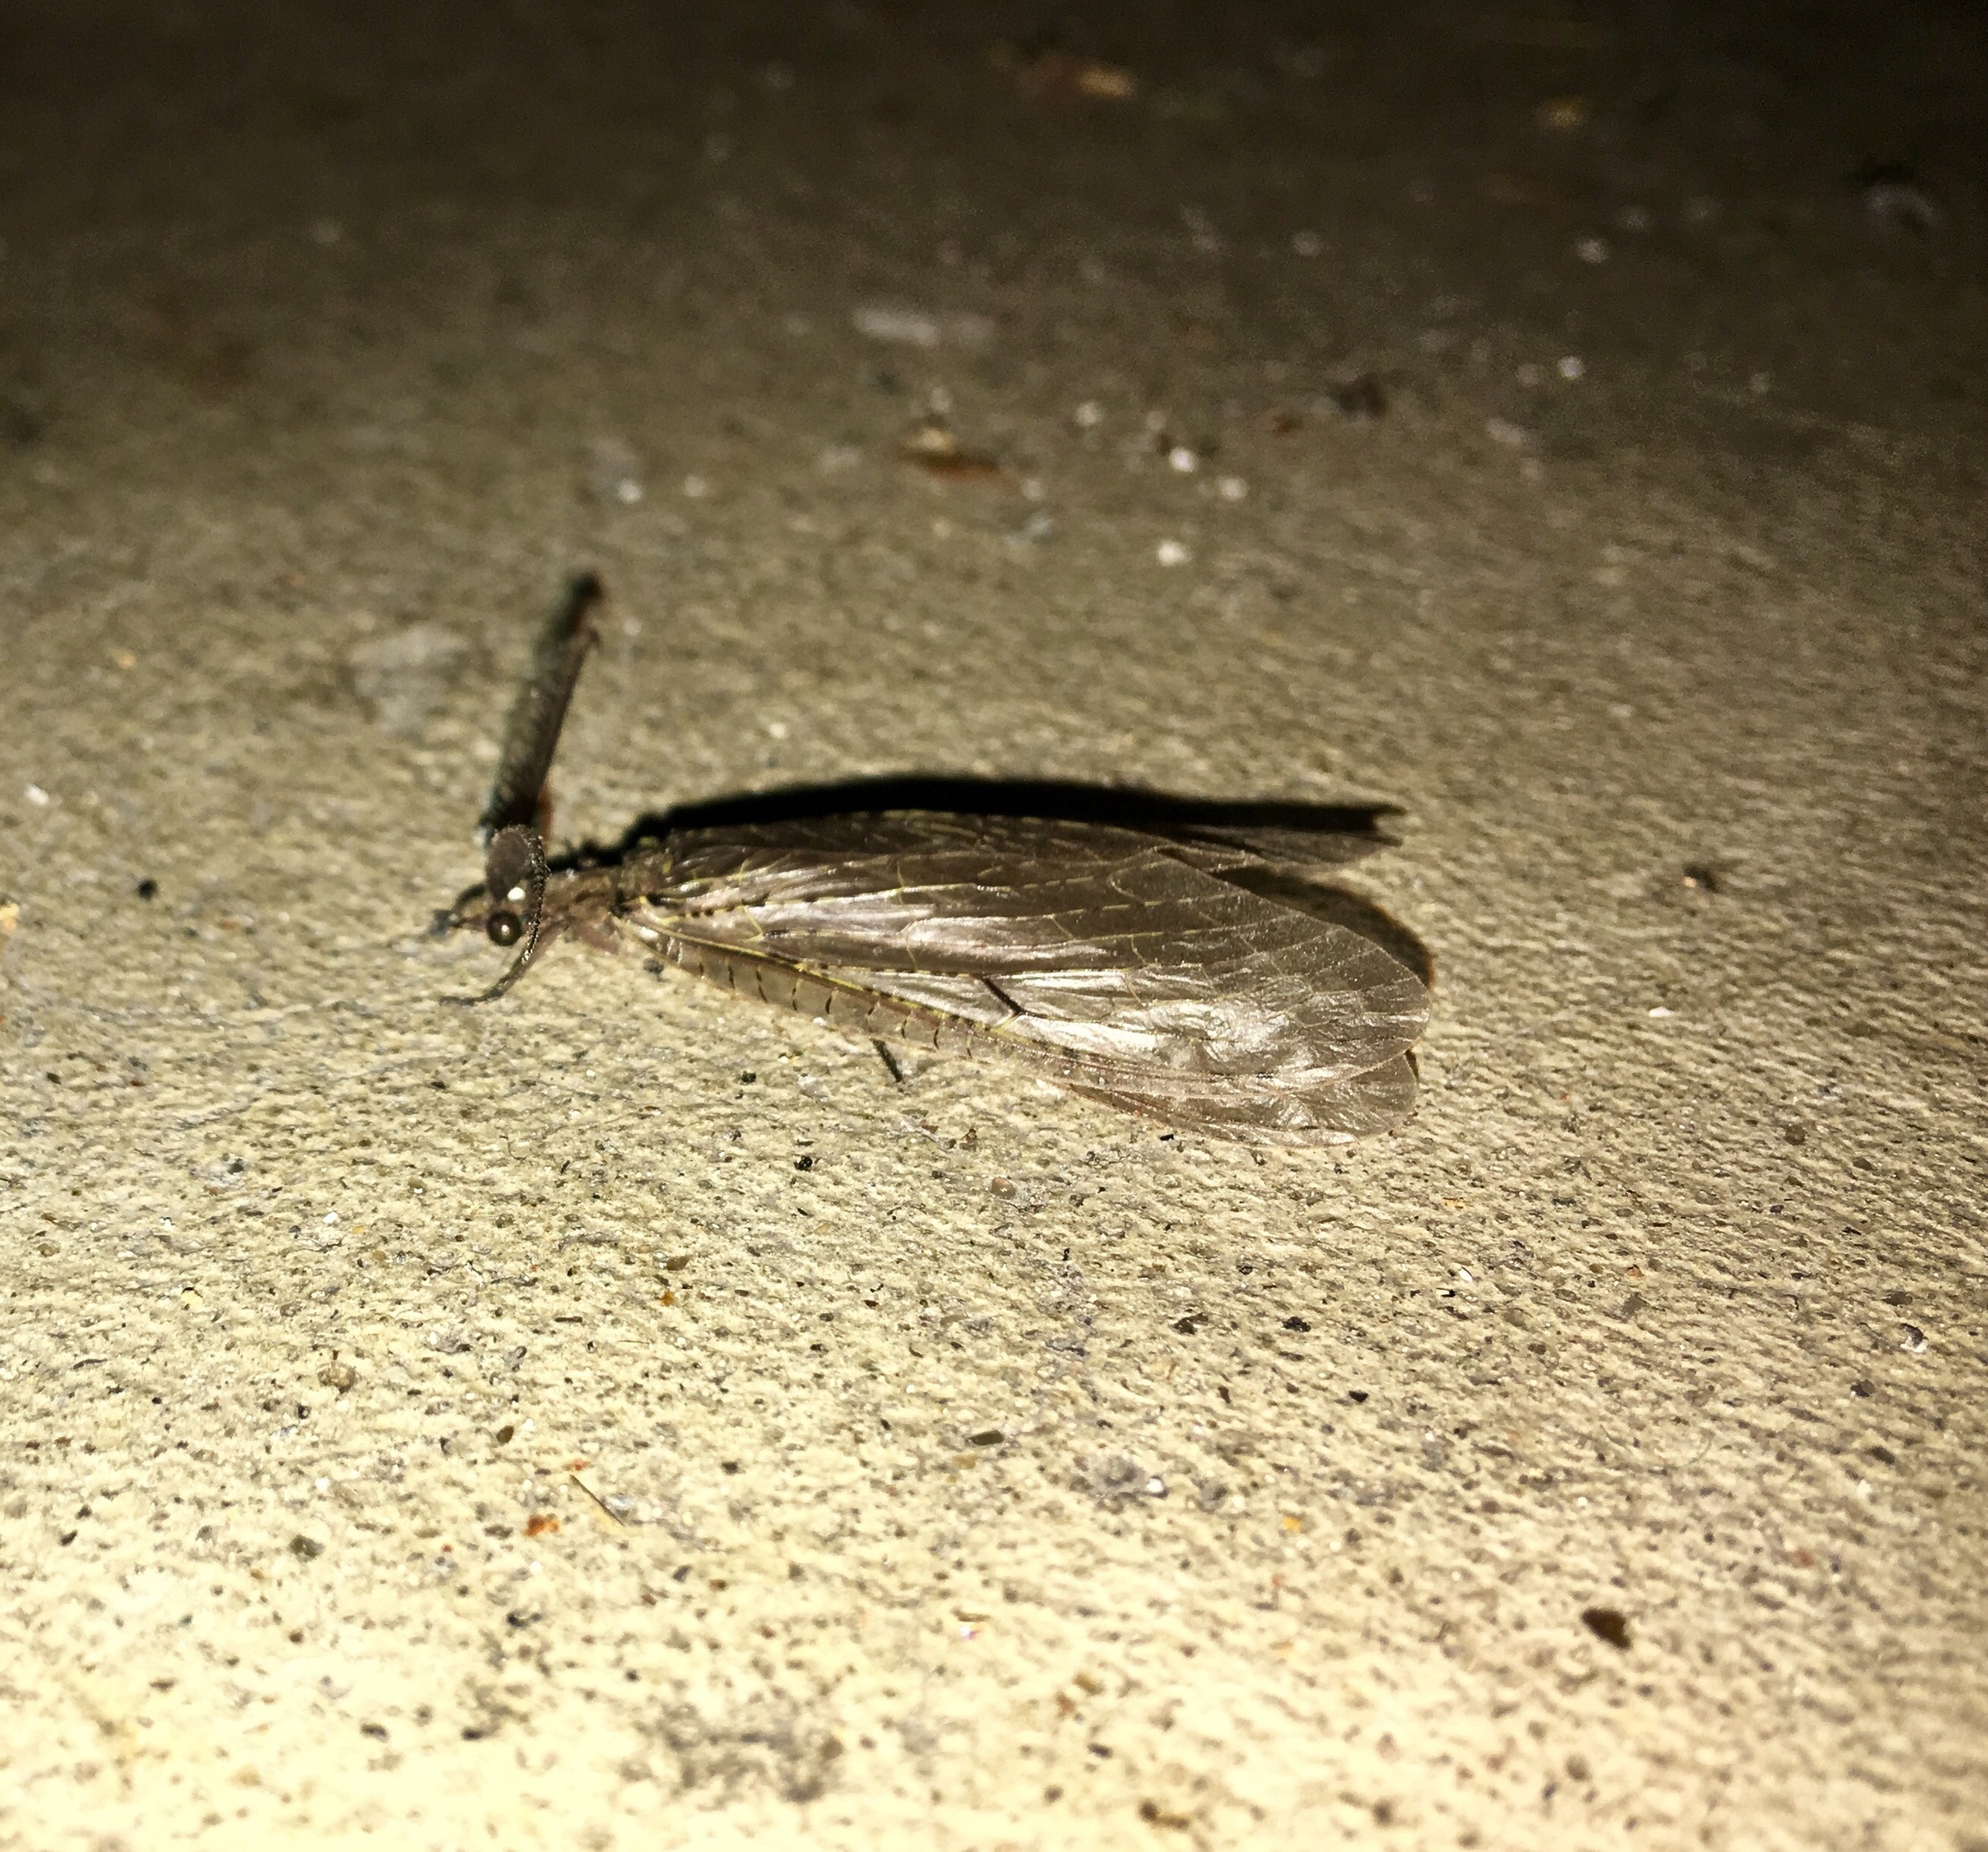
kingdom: Animalia
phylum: Arthropoda
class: Insecta
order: Megaloptera
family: Corydalidae
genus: Chauliodes
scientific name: Chauliodes rastricornis
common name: Spring fishfly
